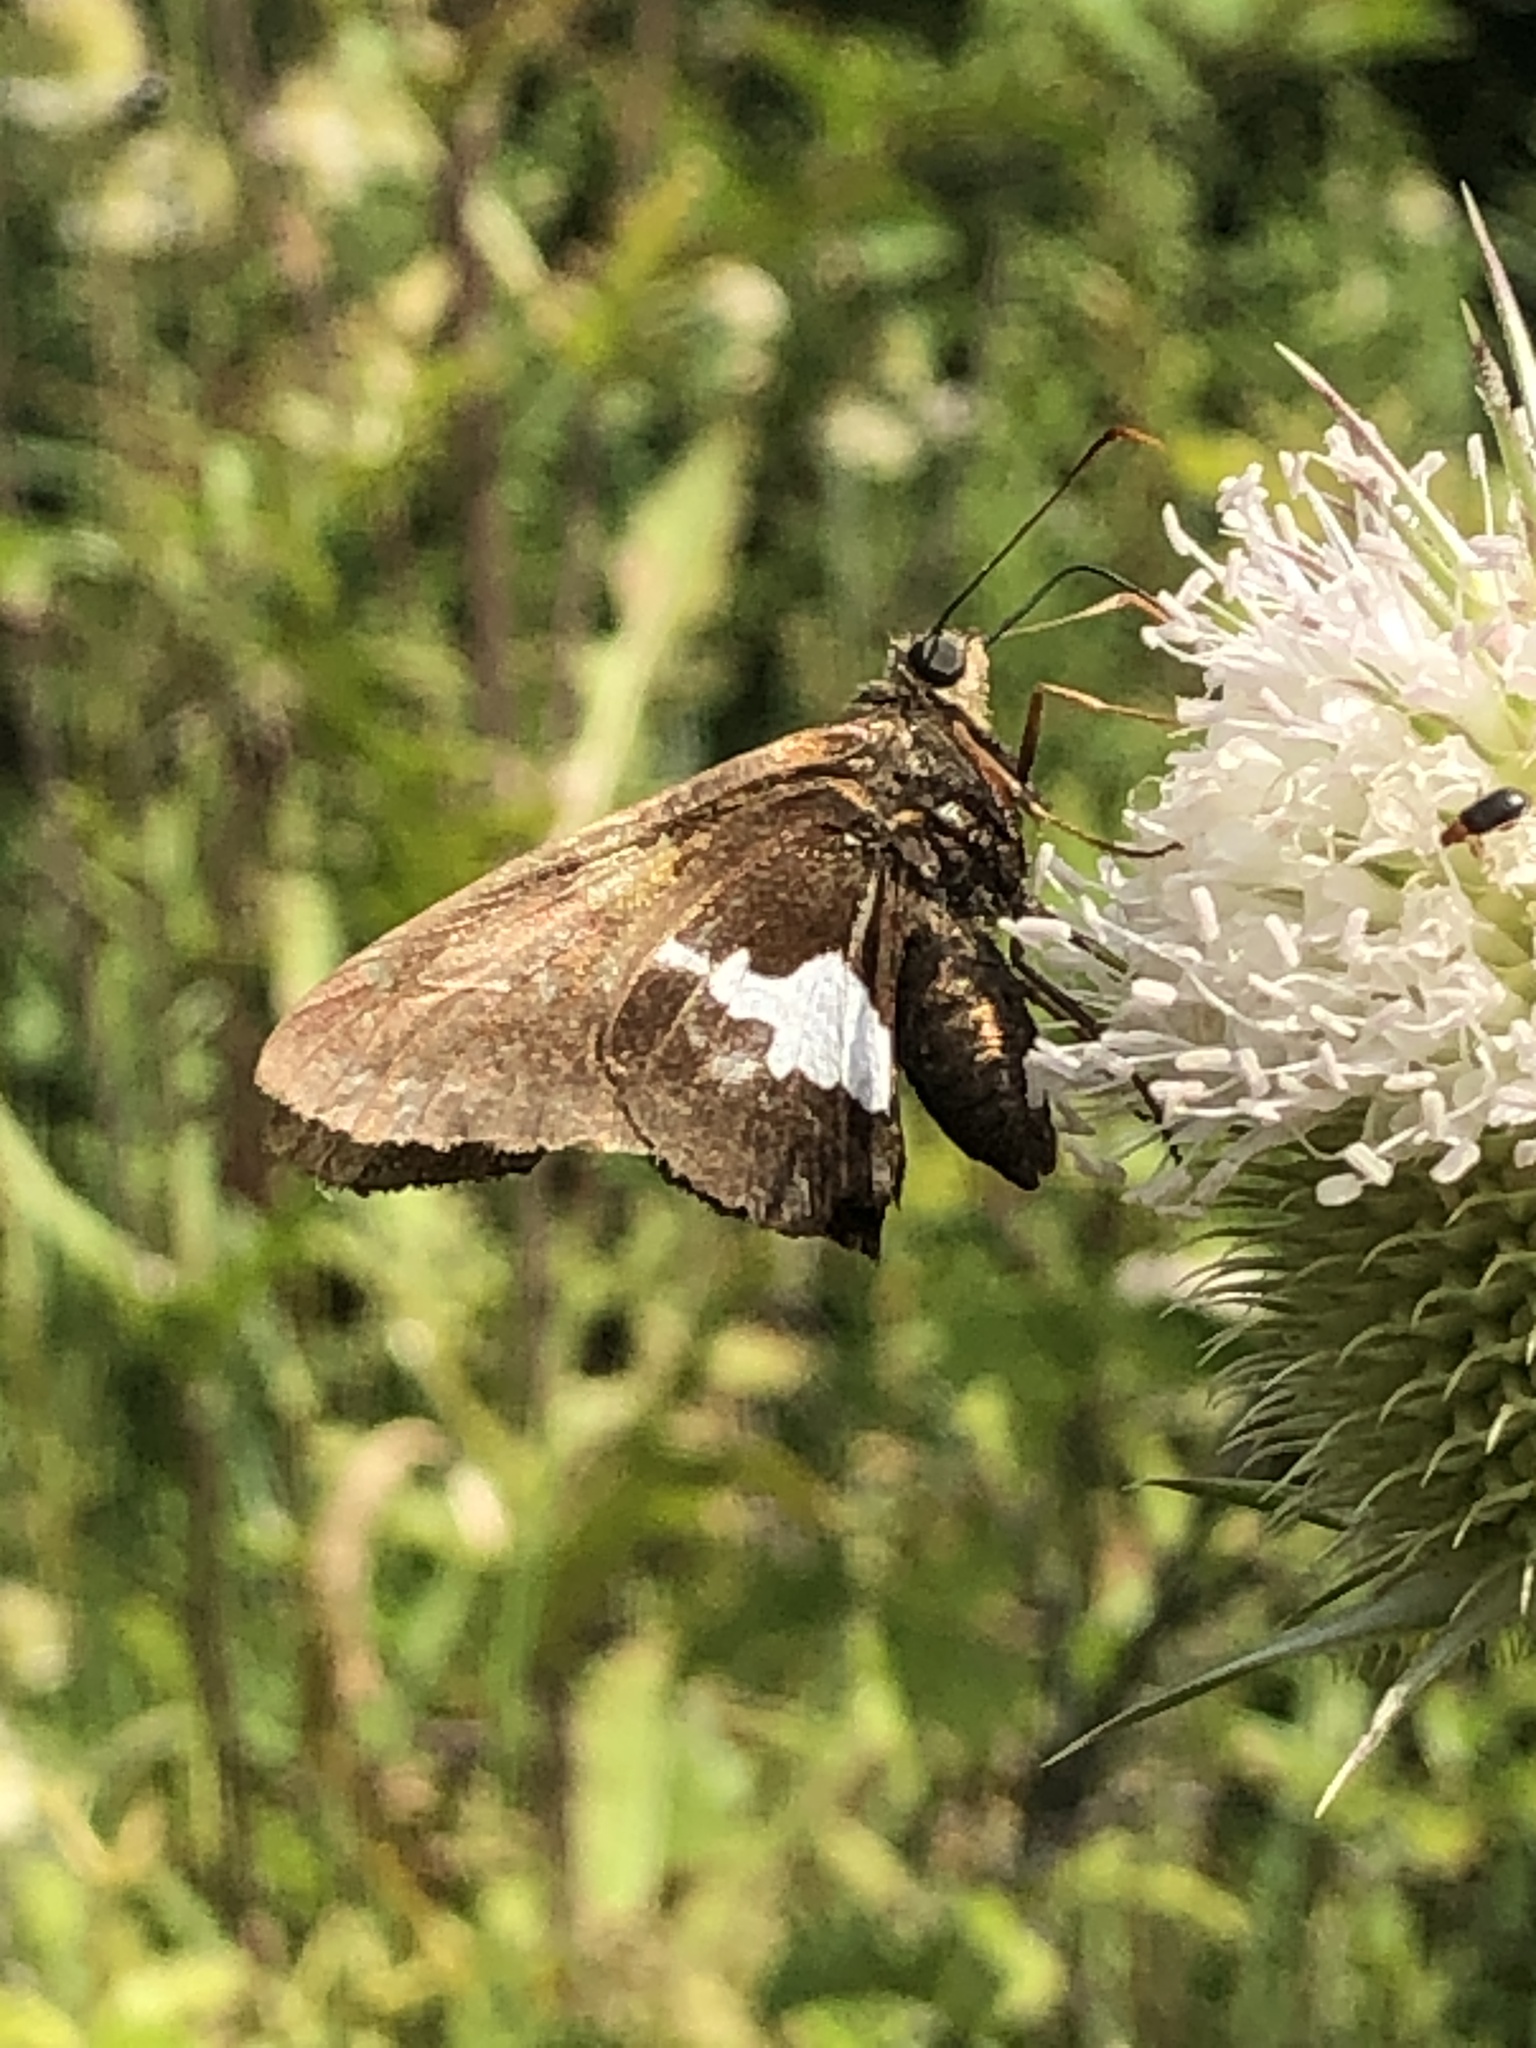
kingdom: Animalia
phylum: Arthropoda
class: Insecta
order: Lepidoptera
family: Hesperiidae
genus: Epargyreus
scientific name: Epargyreus clarus
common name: Silver-spotted skipper
